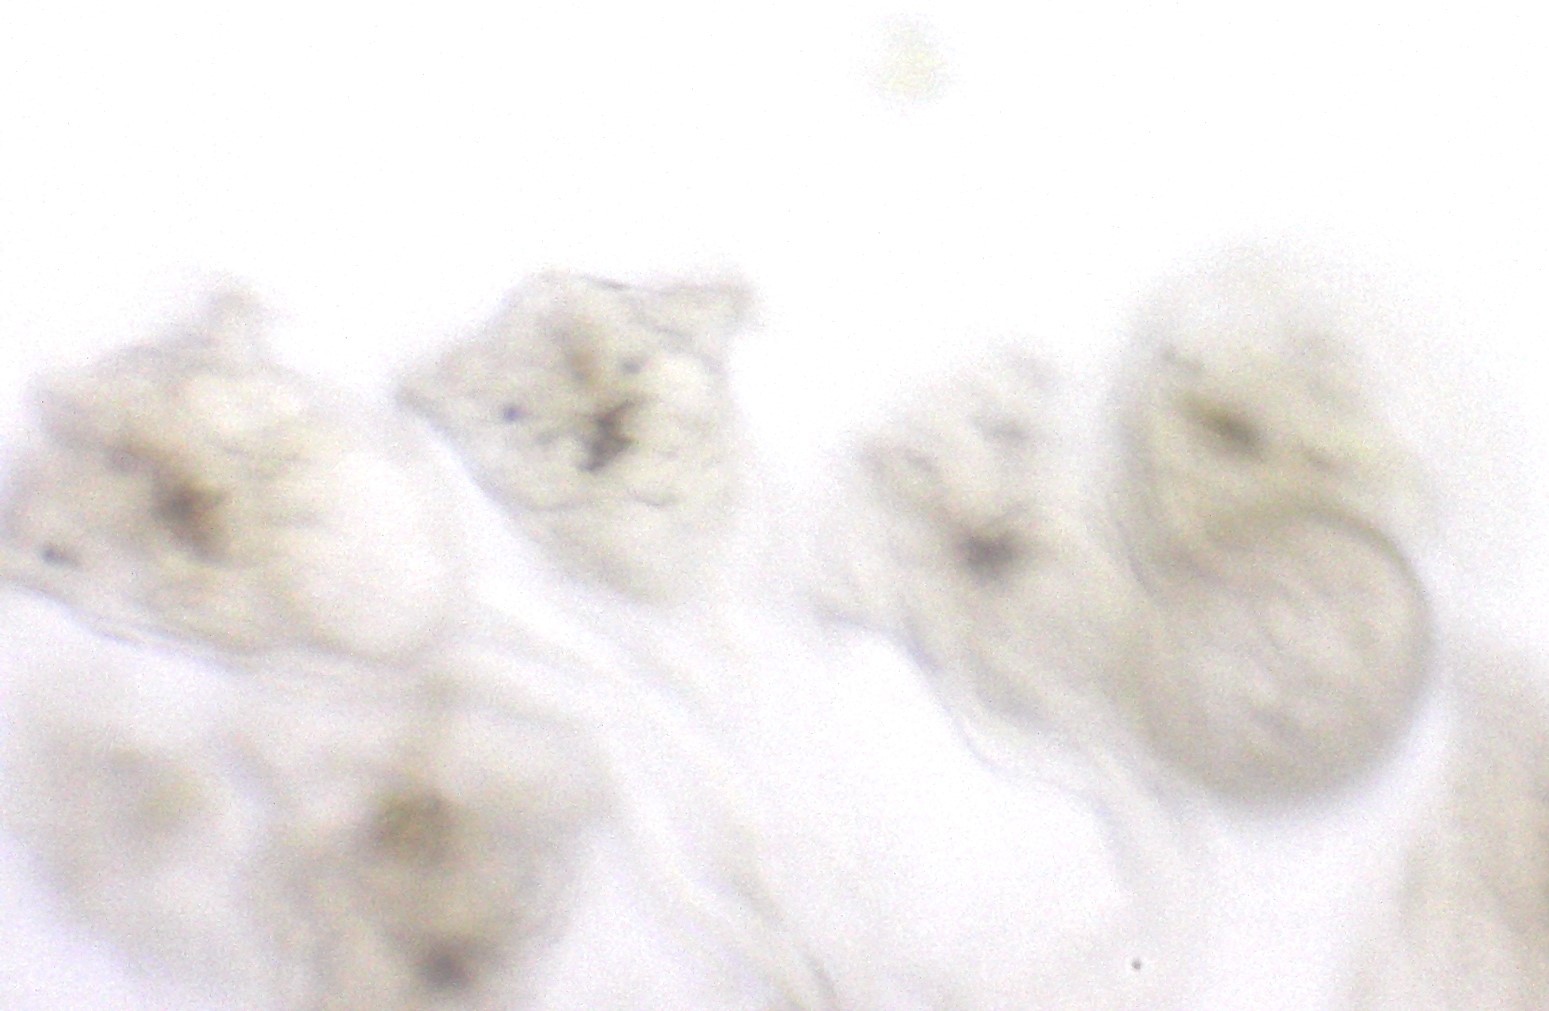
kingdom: Animalia
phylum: Rotifera
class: Eurotatoria
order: Flosculariaceae
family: Conochilidae
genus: Conochilus
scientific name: Conochilus hippocrepis
